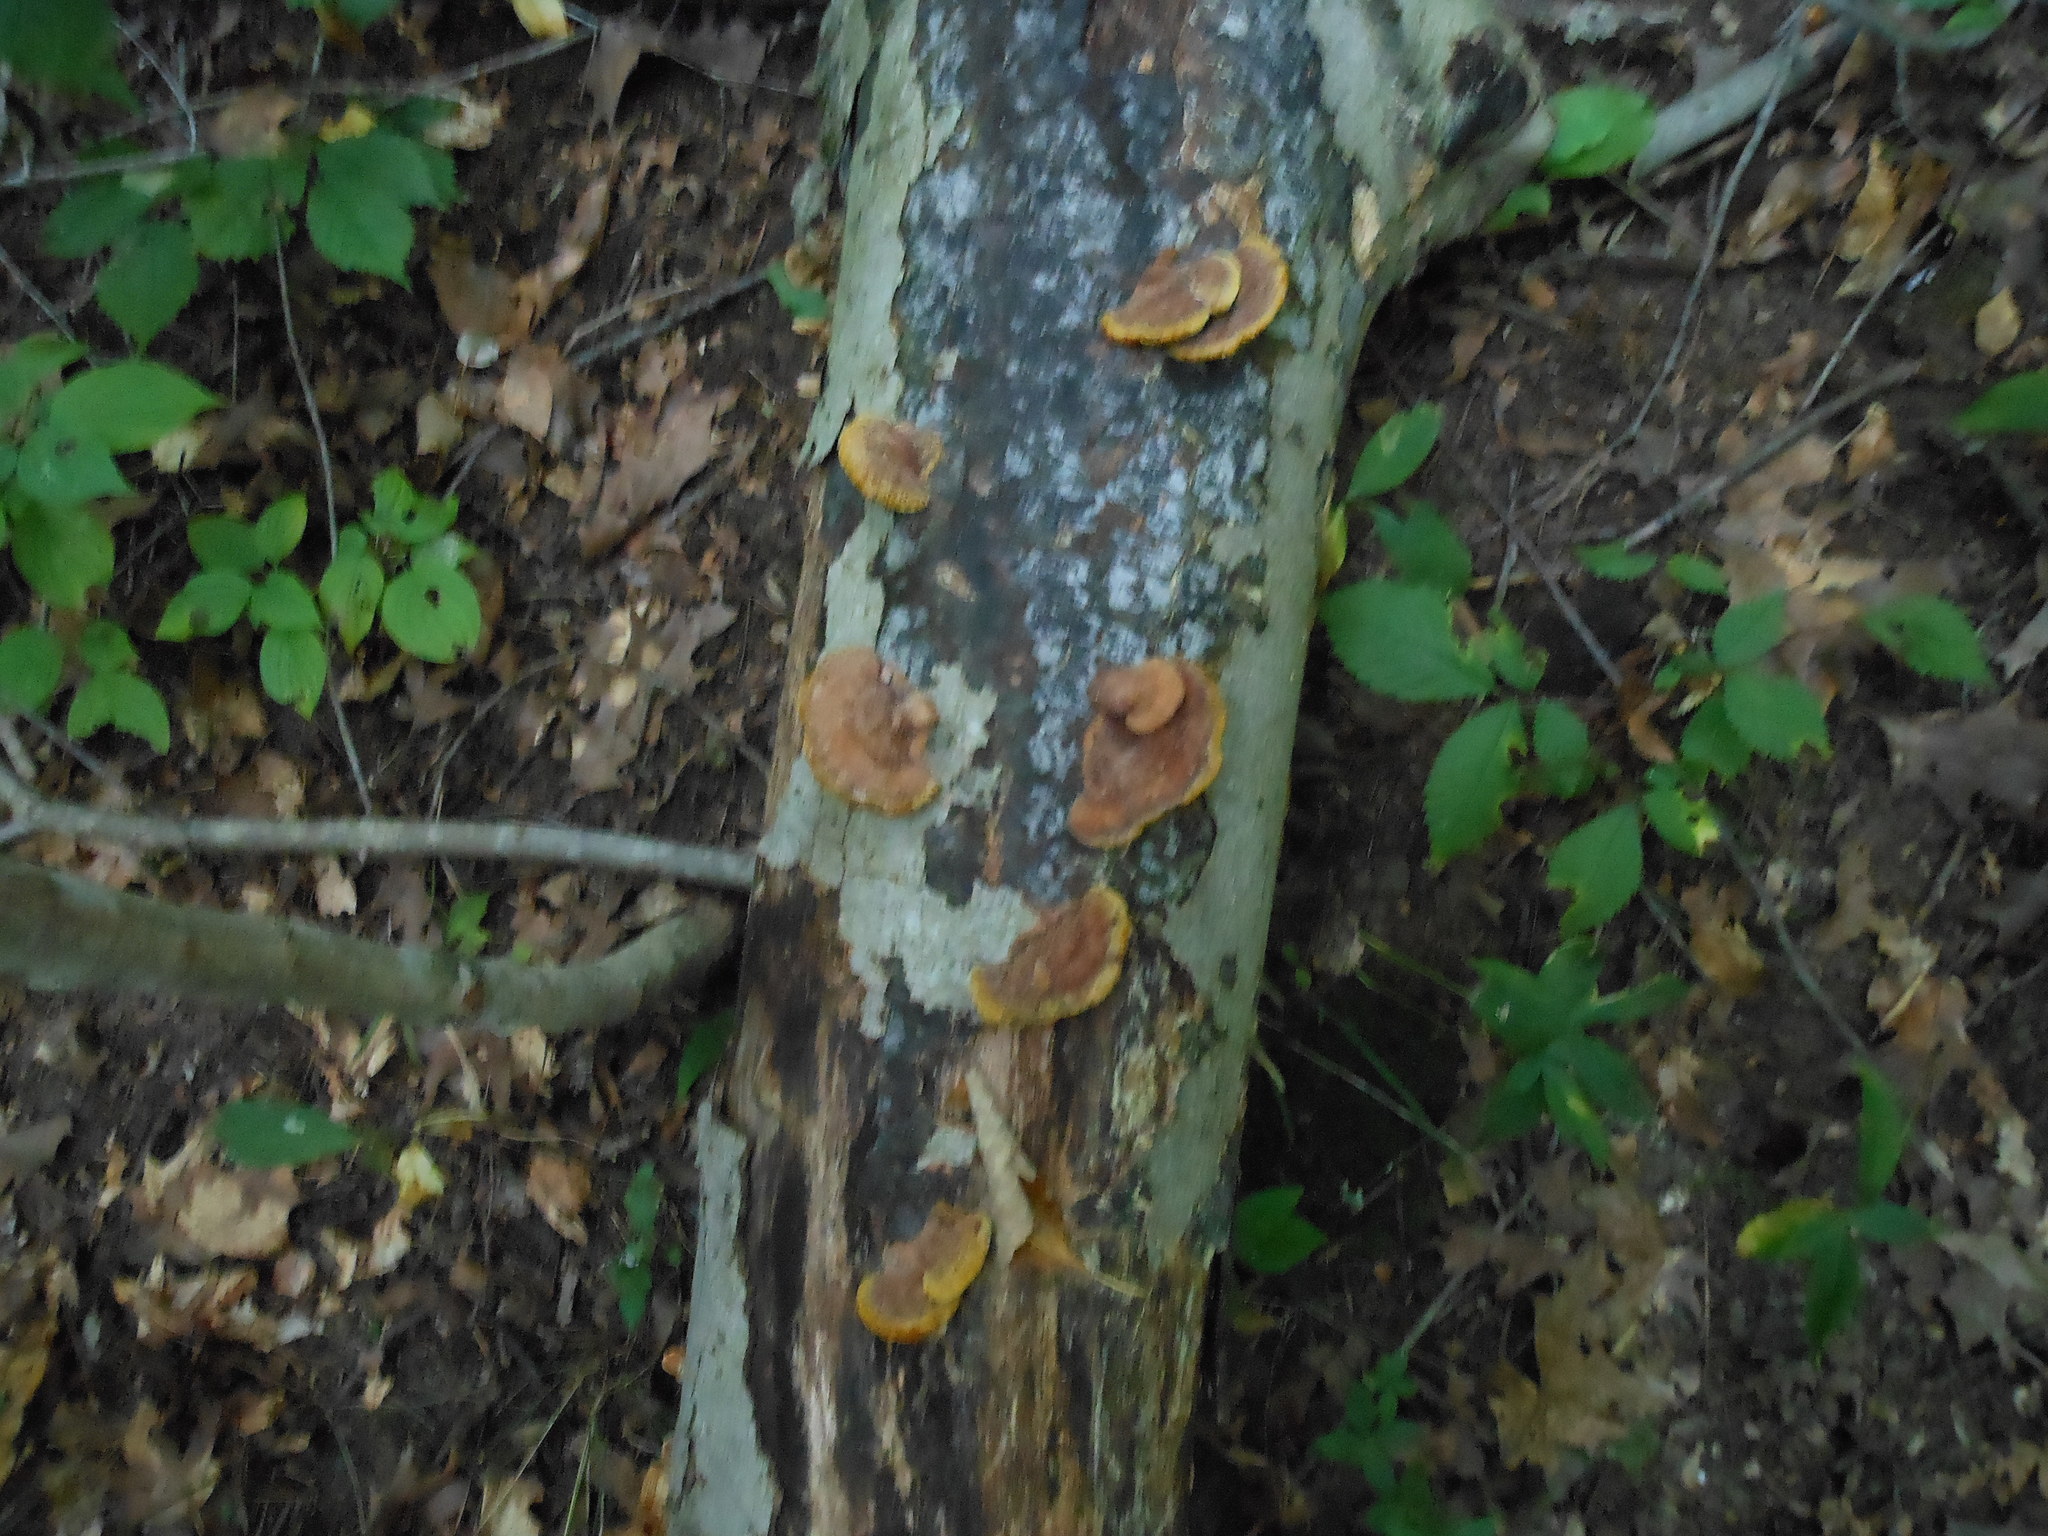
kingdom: Fungi
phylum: Basidiomycota
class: Agaricomycetes
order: Hymenochaetales
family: Hymenochaetaceae
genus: Phellinus
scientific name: Phellinus gilvus
